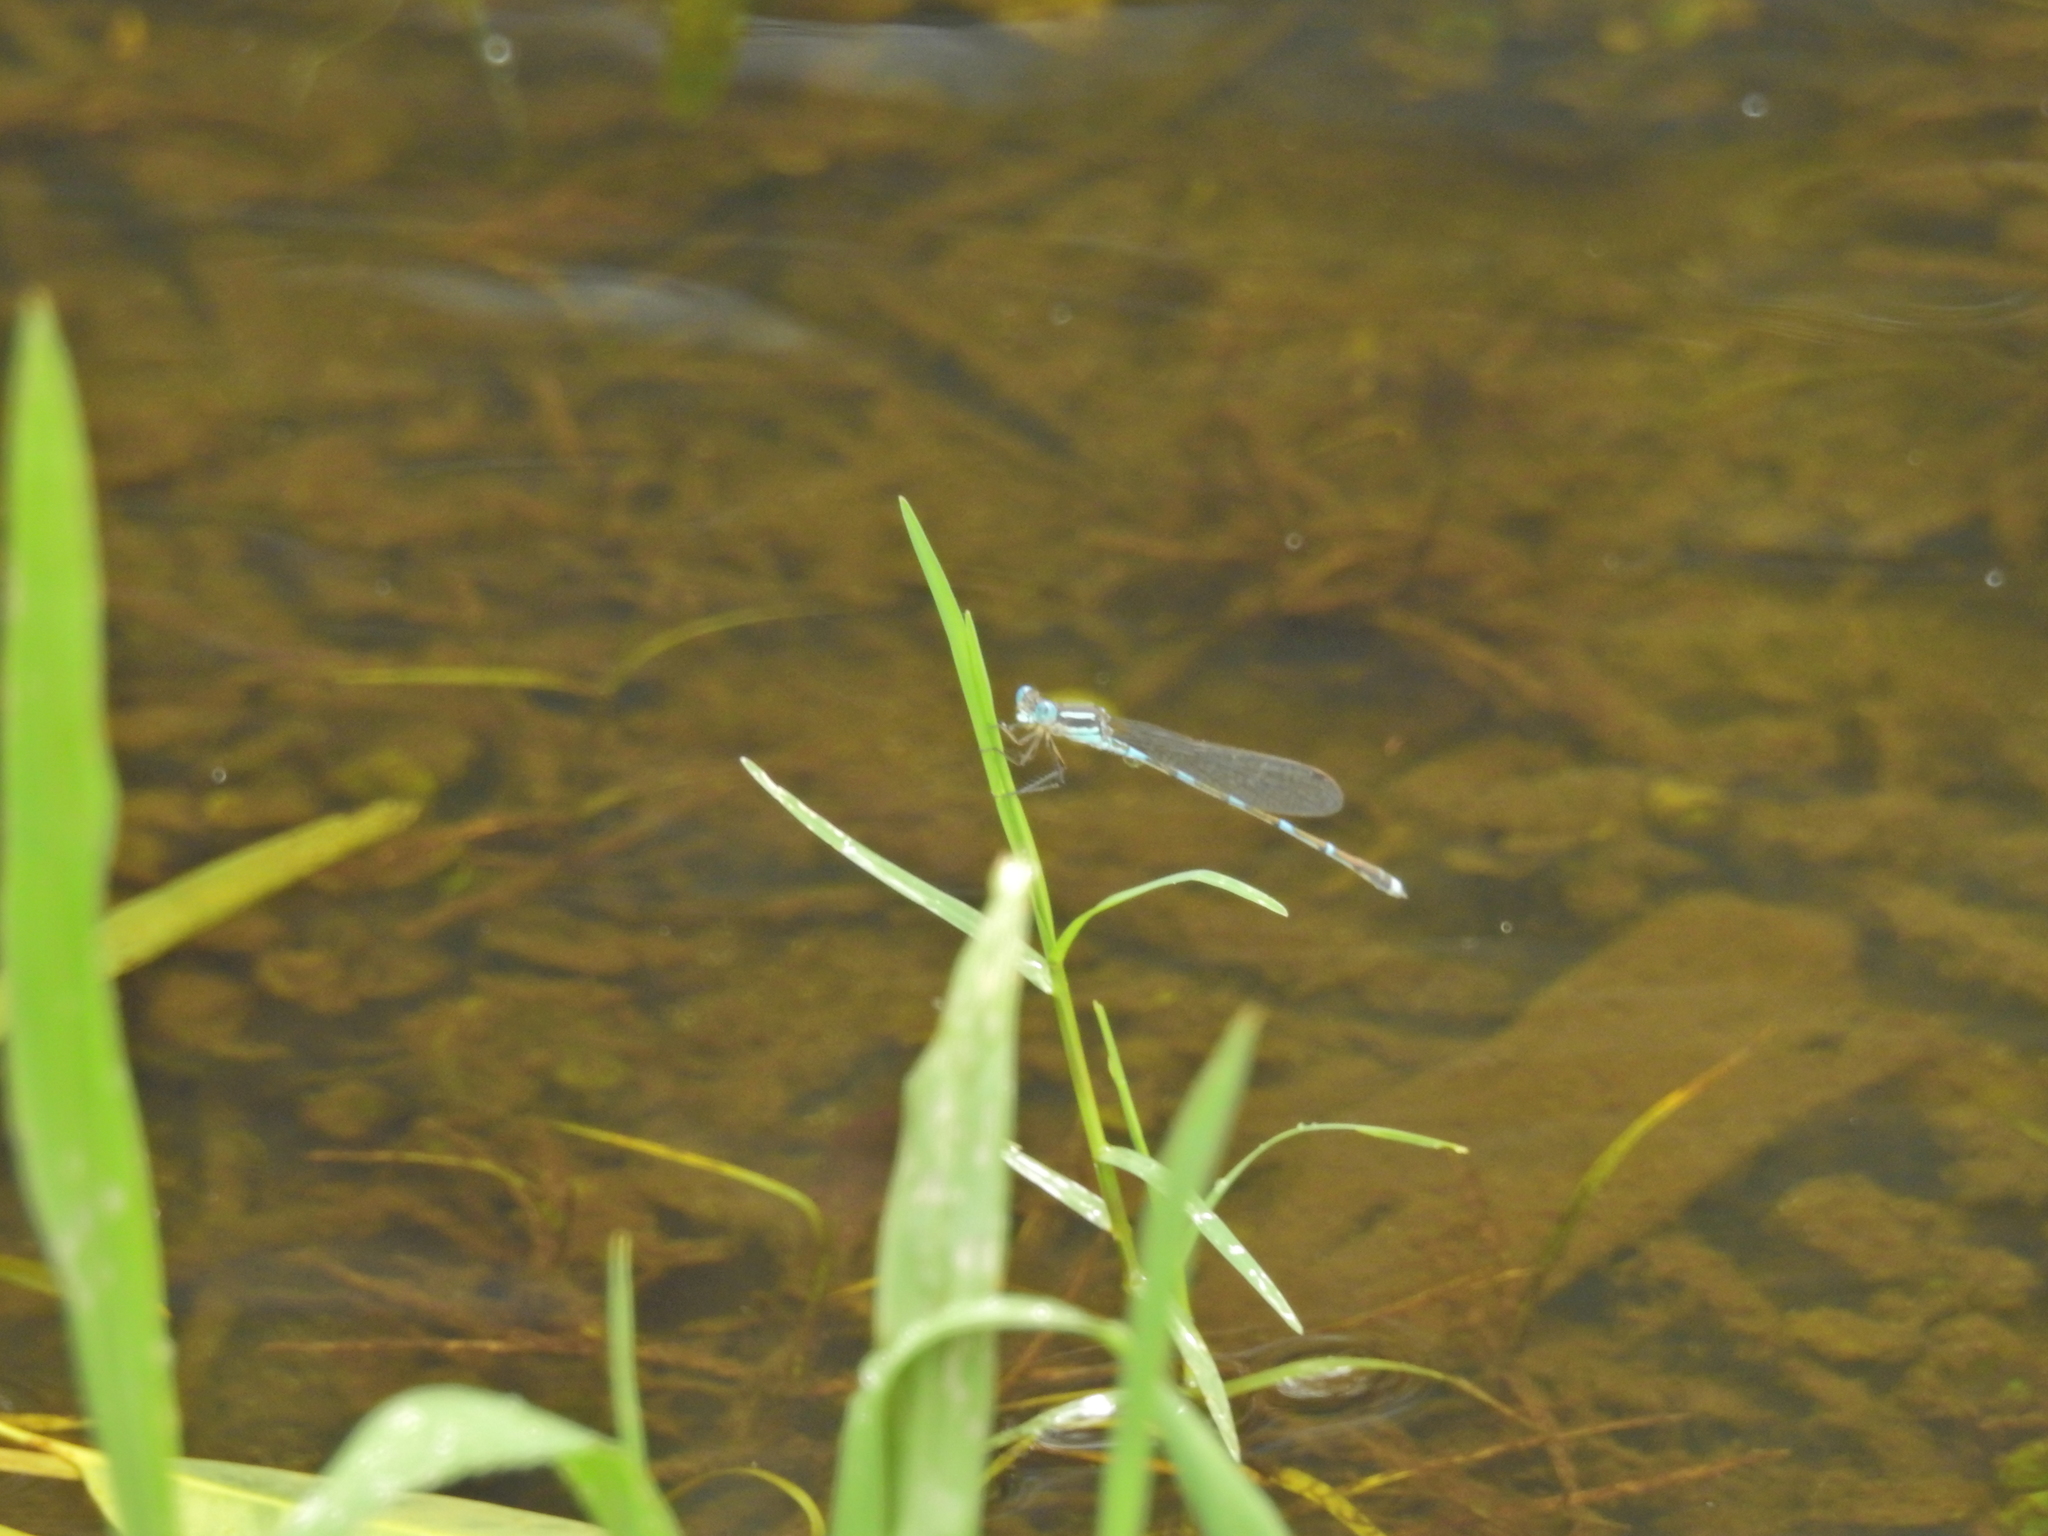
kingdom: Animalia
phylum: Arthropoda
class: Insecta
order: Odonata
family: Lestidae
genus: Austrolestes
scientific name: Austrolestes leda
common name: Wandering ringtail
